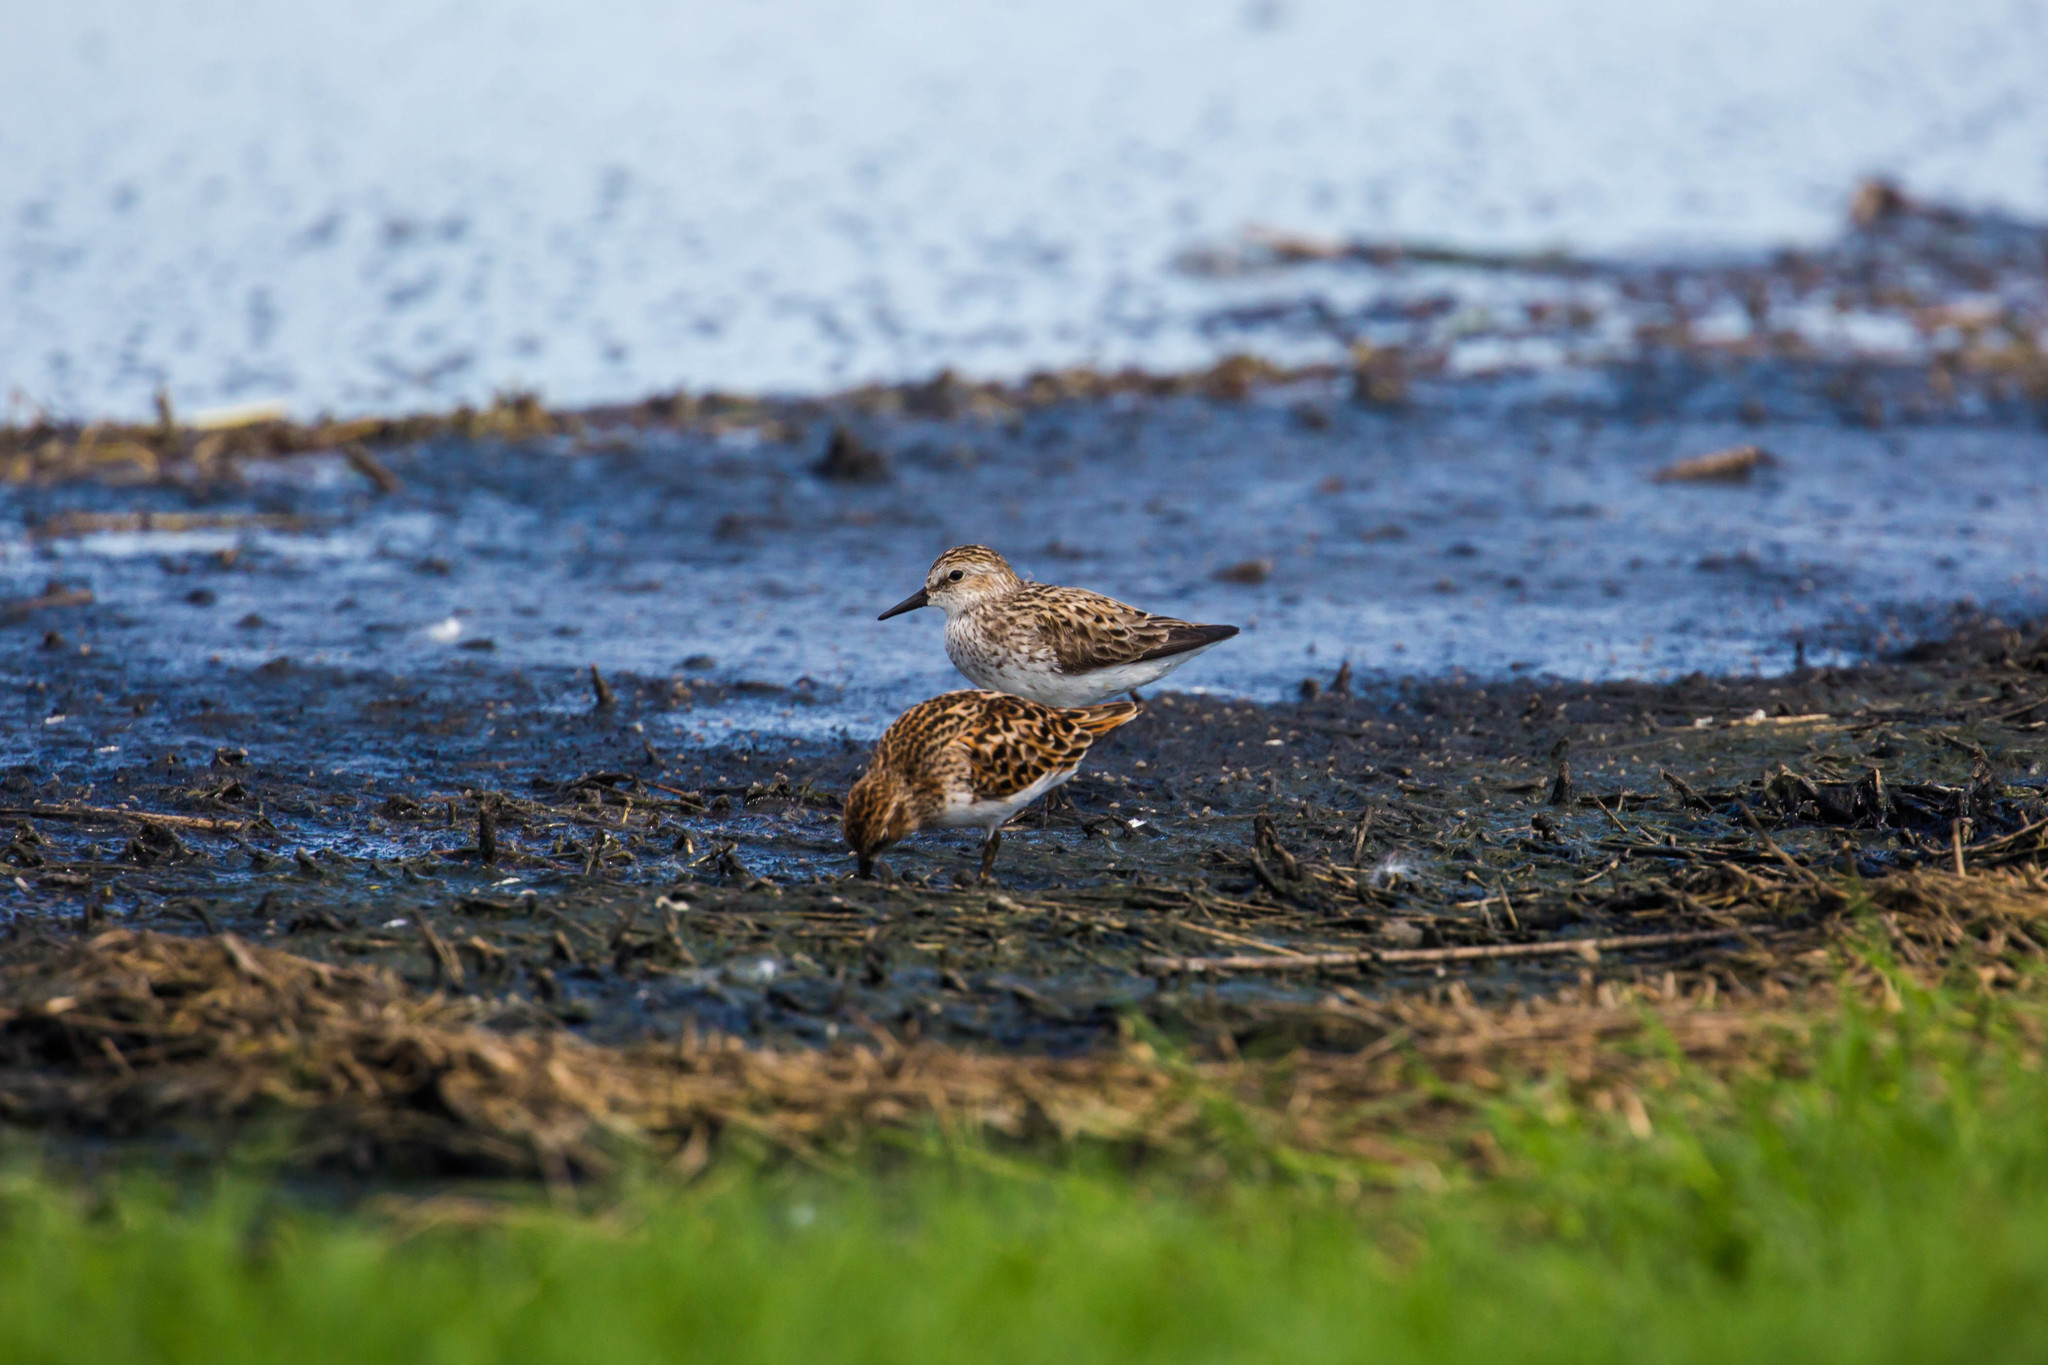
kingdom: Animalia
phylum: Chordata
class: Aves
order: Charadriiformes
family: Scolopacidae
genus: Calidris
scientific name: Calidris pusilla
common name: Semipalmated sandpiper
